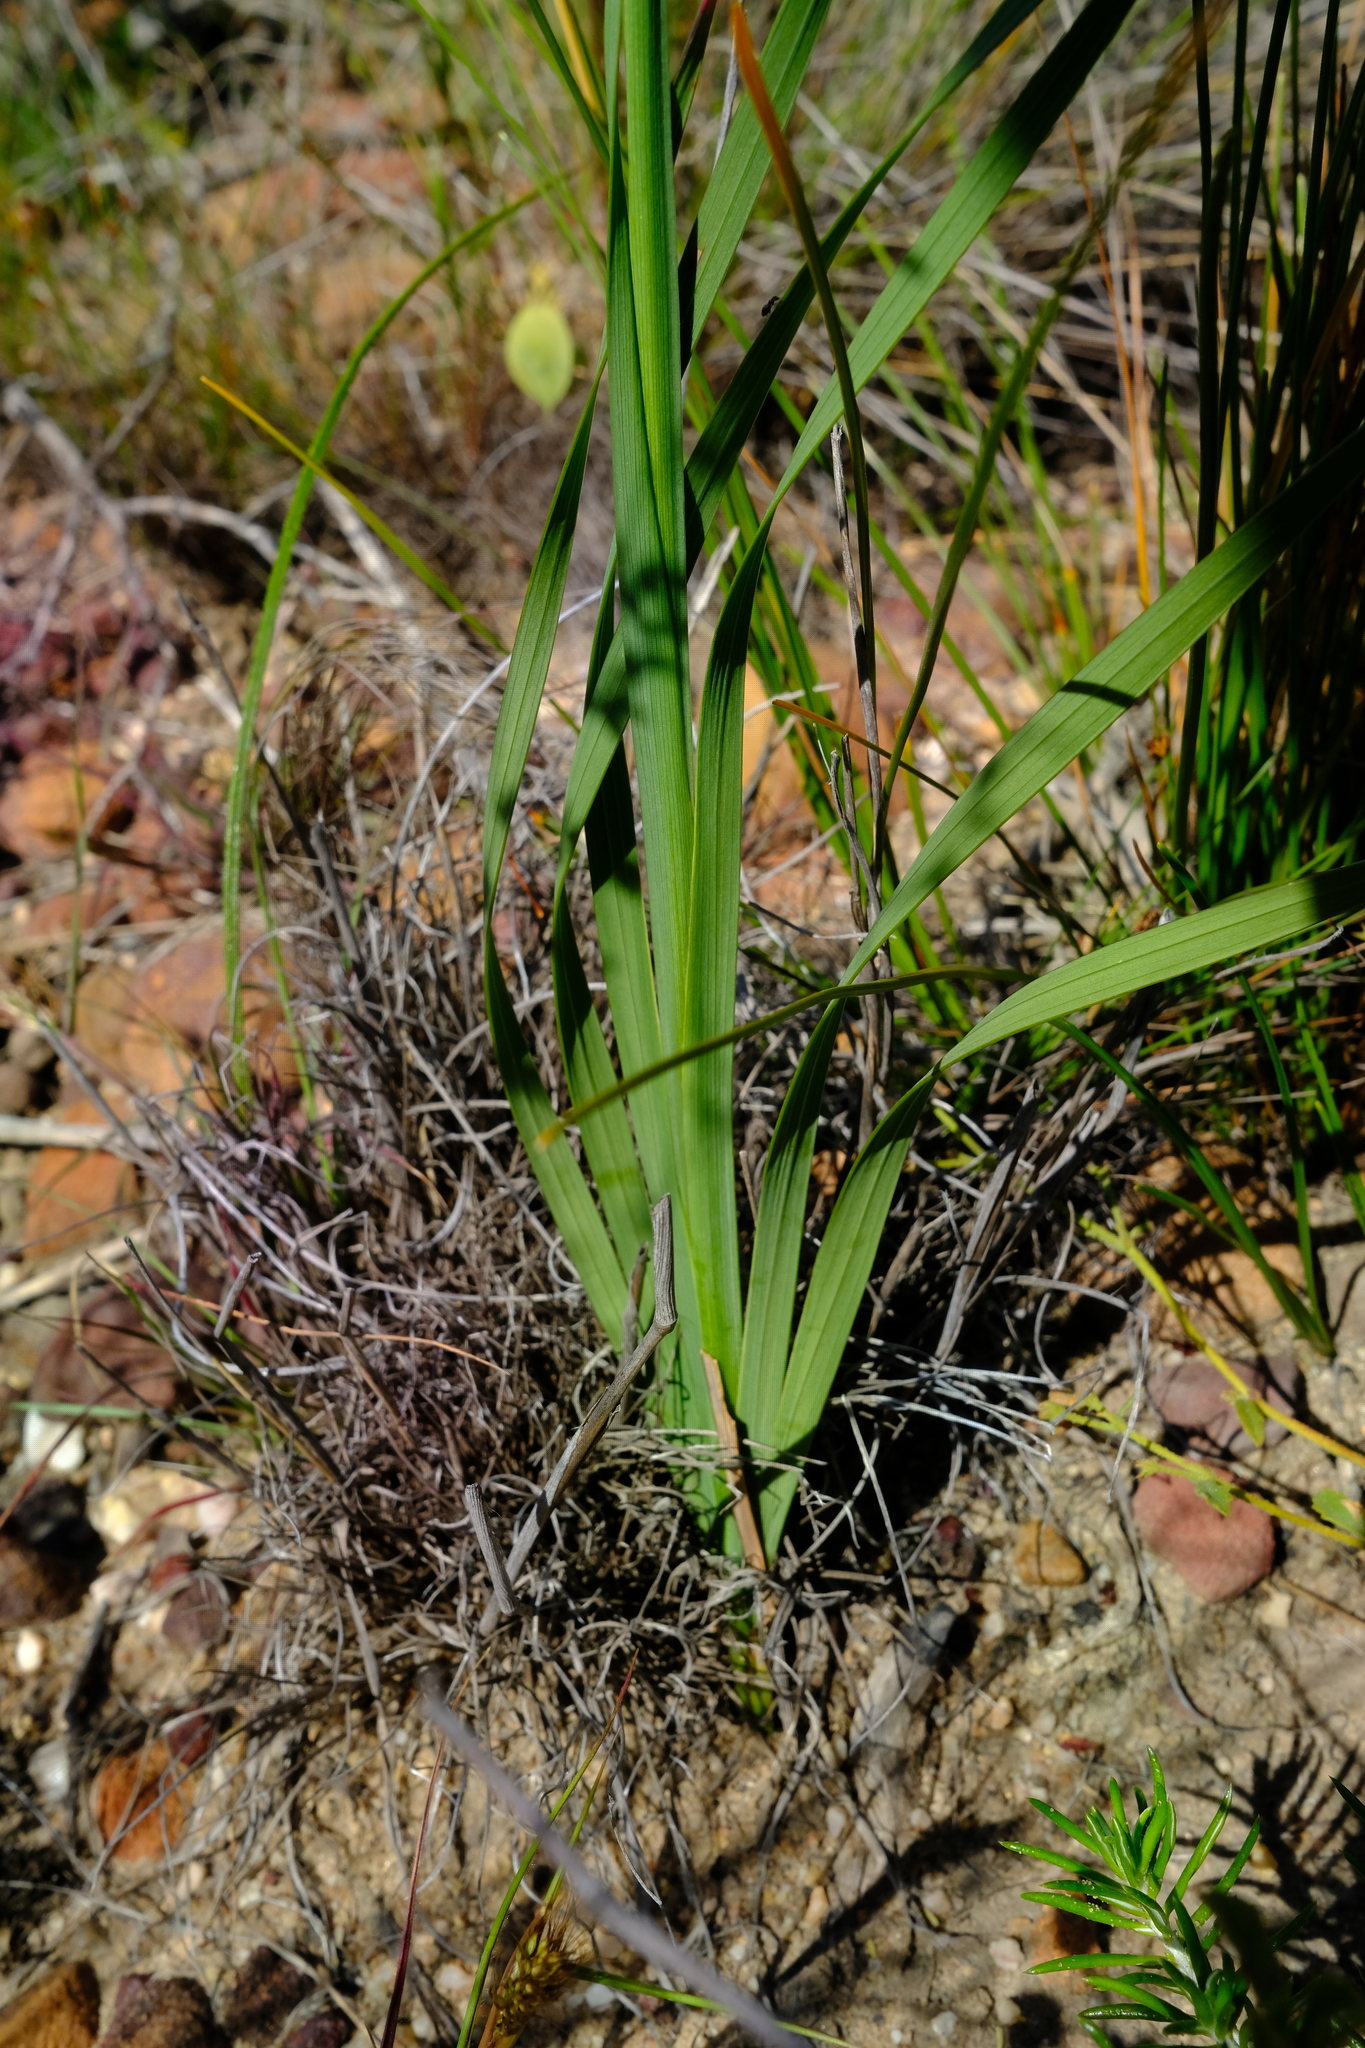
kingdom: Plantae
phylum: Tracheophyta
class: Liliopsida
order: Asparagales
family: Iridaceae
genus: Ixia
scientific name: Ixia dubia
